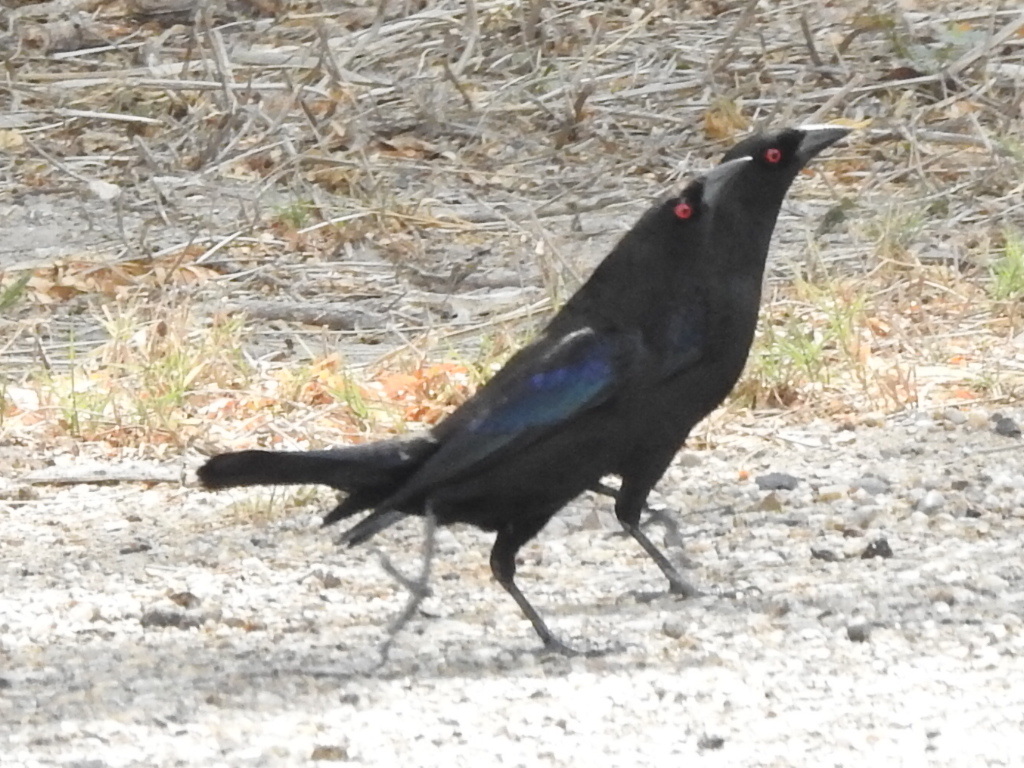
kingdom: Animalia
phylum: Chordata
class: Aves
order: Passeriformes
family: Icteridae
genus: Molothrus
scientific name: Molothrus aeneus
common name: Bronzed cowbird
